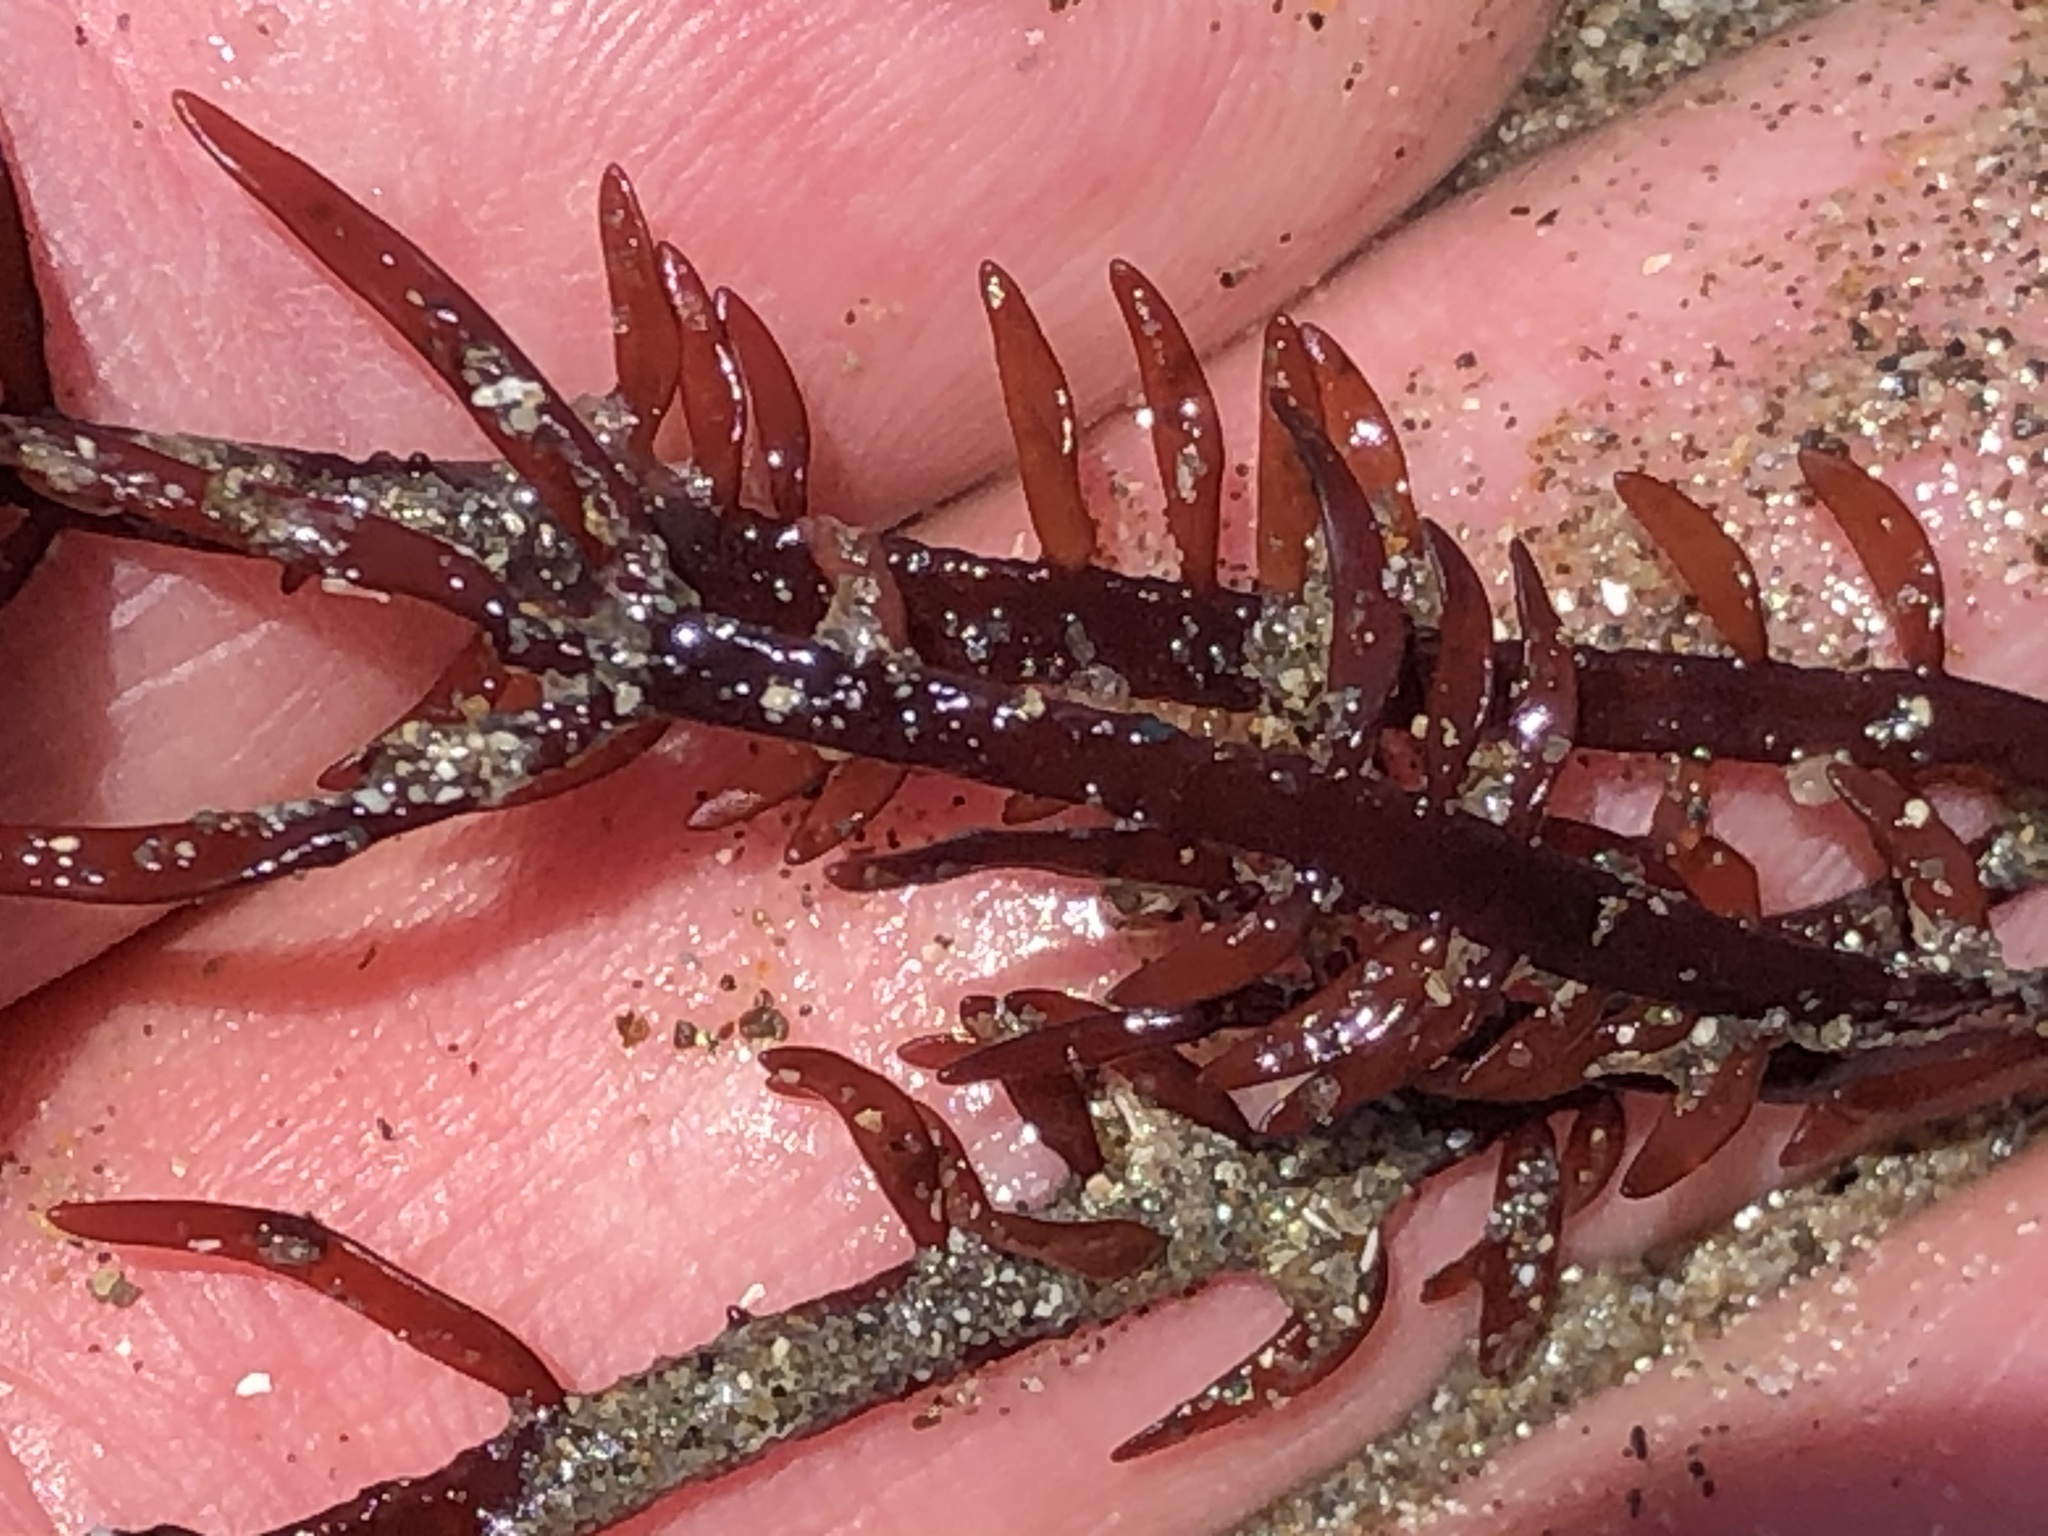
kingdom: Plantae
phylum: Rhodophyta
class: Florideophyceae
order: Halymeniales
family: Halymeniaceae
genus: Grateloupia
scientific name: Grateloupia Prionitis lanceolata
